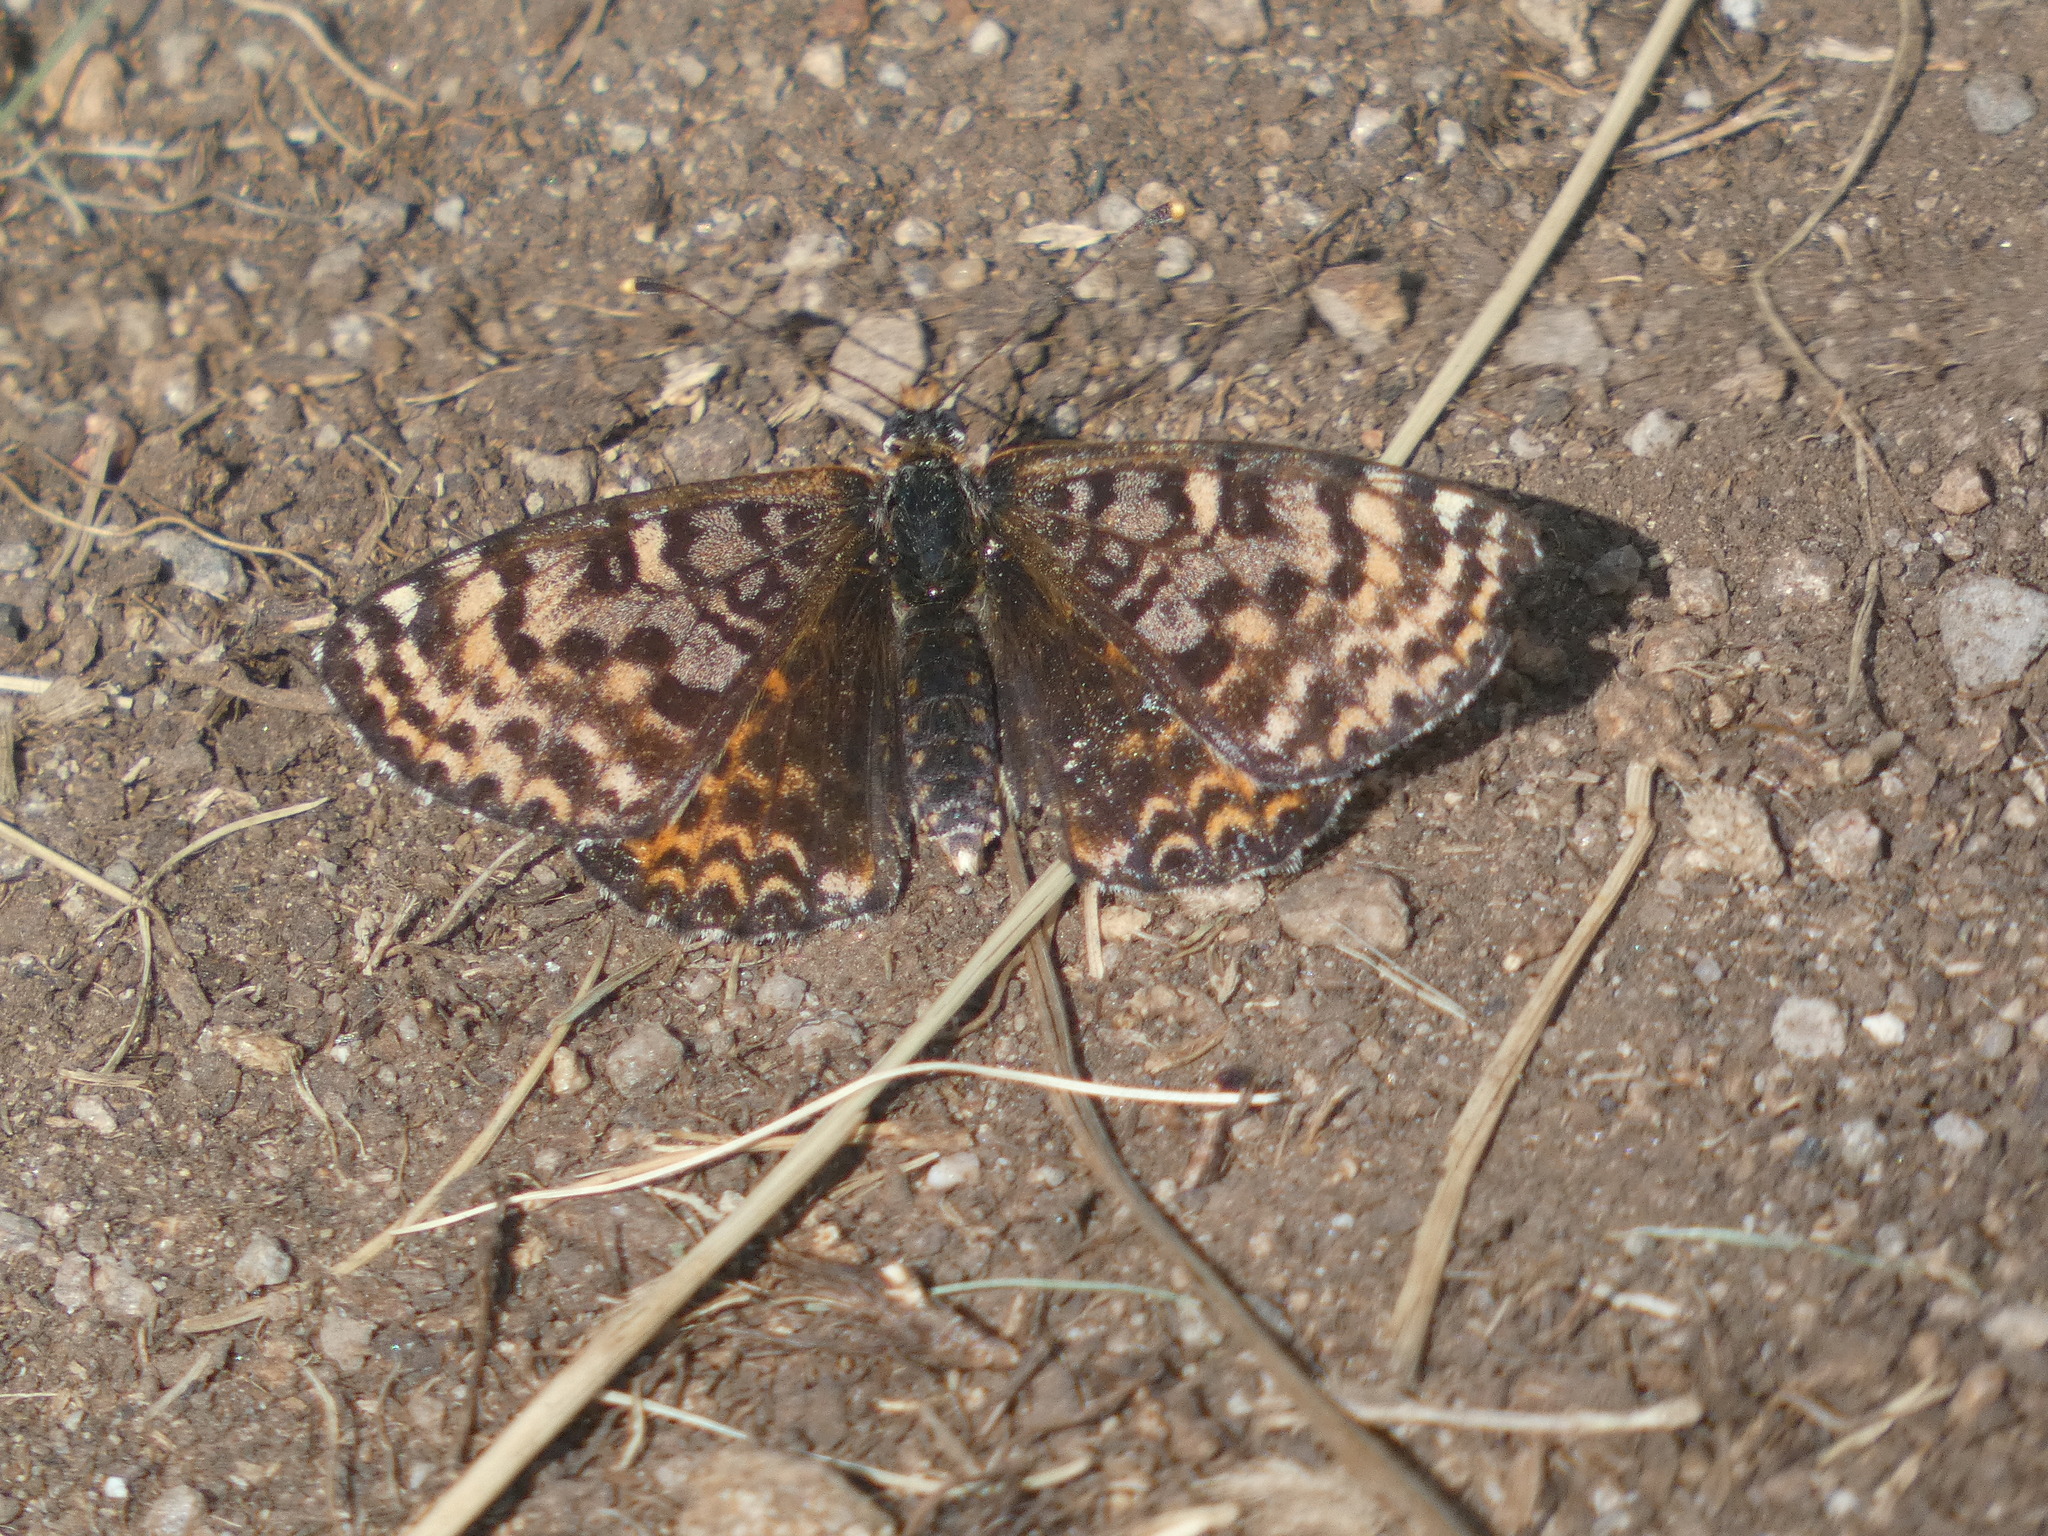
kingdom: Animalia
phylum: Arthropoda
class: Insecta
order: Lepidoptera
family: Nymphalidae
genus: Melitaea
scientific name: Melitaea didyma
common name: Spotted fritillary
